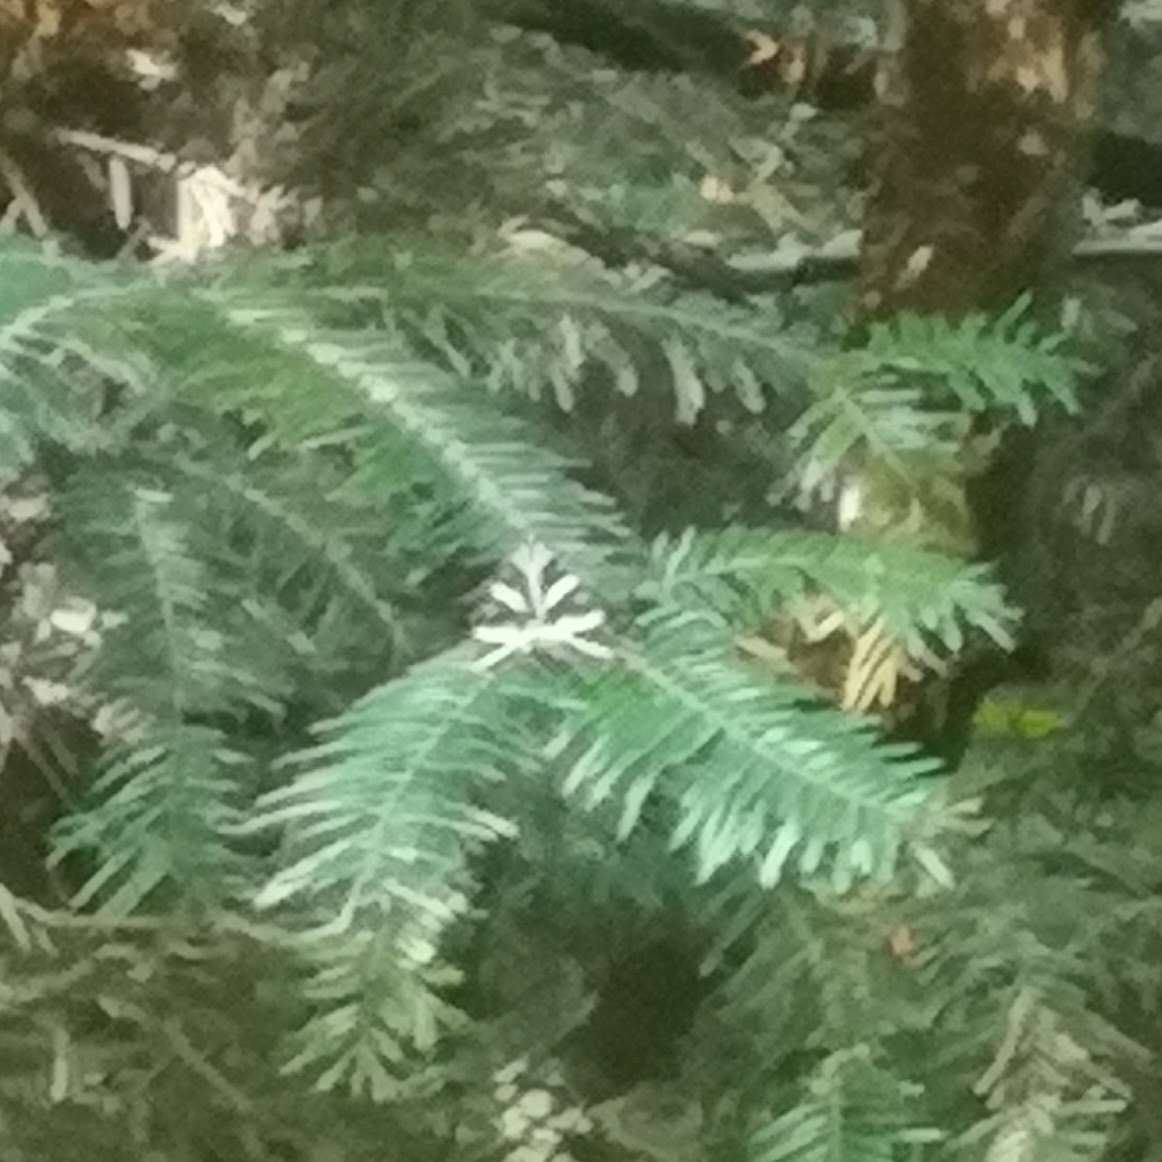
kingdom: Animalia
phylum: Arthropoda
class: Insecta
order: Lepidoptera
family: Erebidae
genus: Euplagia
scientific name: Euplagia quadripunctaria
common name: Jersey tiger
